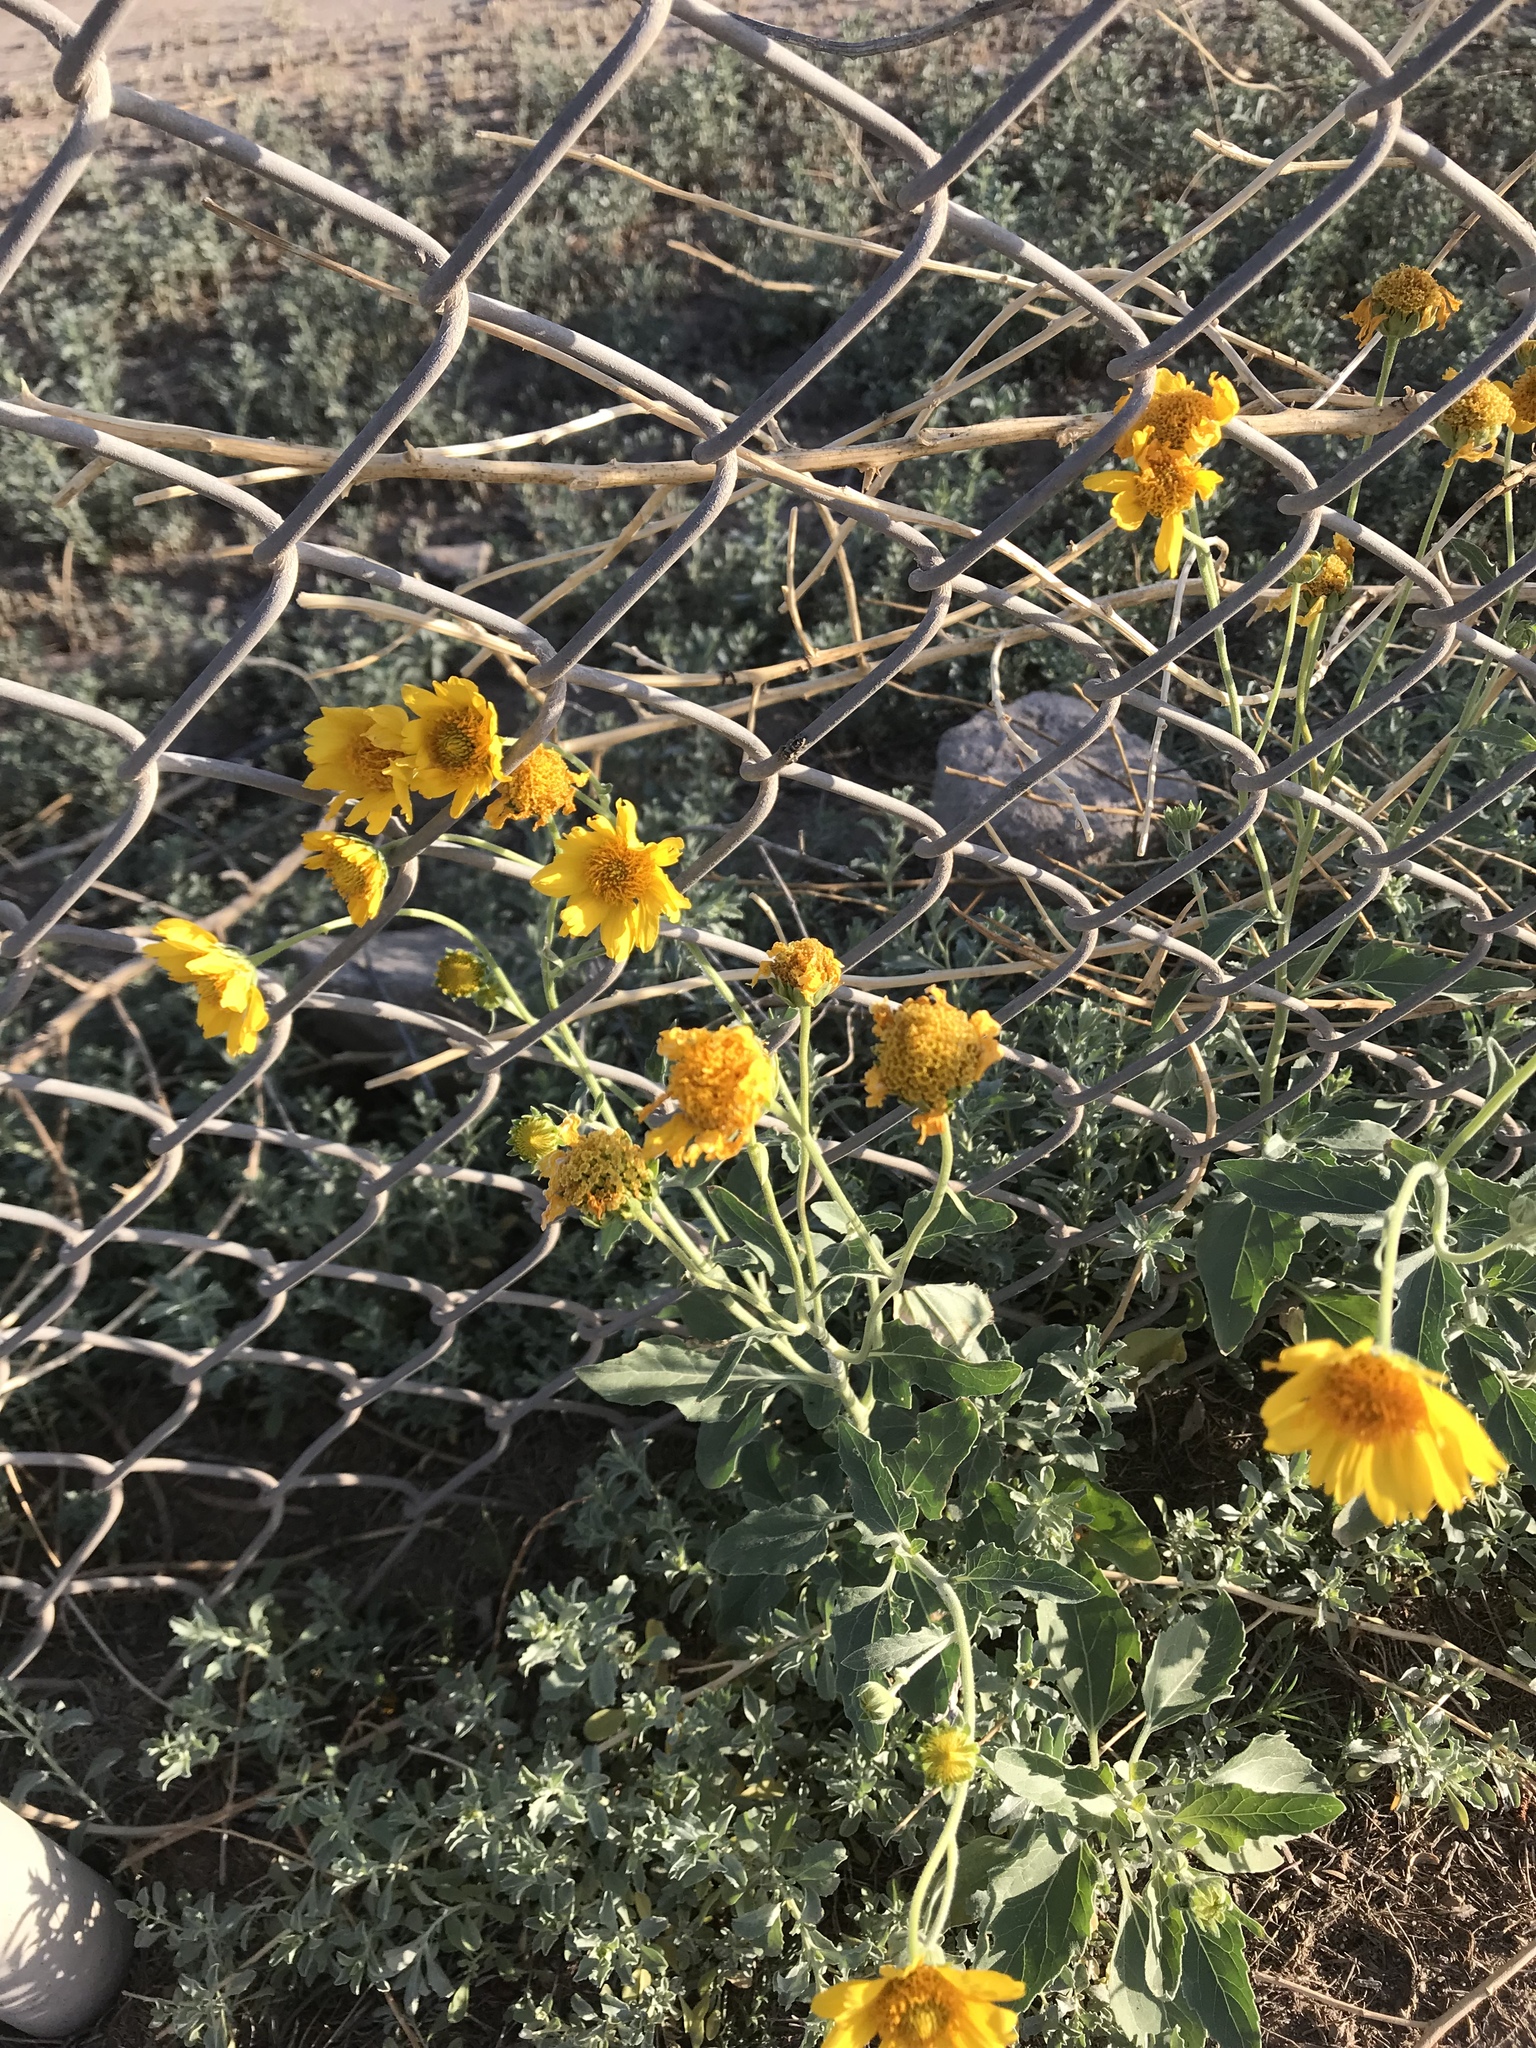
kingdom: Plantae
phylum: Tracheophyta
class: Magnoliopsida
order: Asterales
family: Asteraceae
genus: Verbesina
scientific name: Verbesina encelioides
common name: Golden crownbeard
